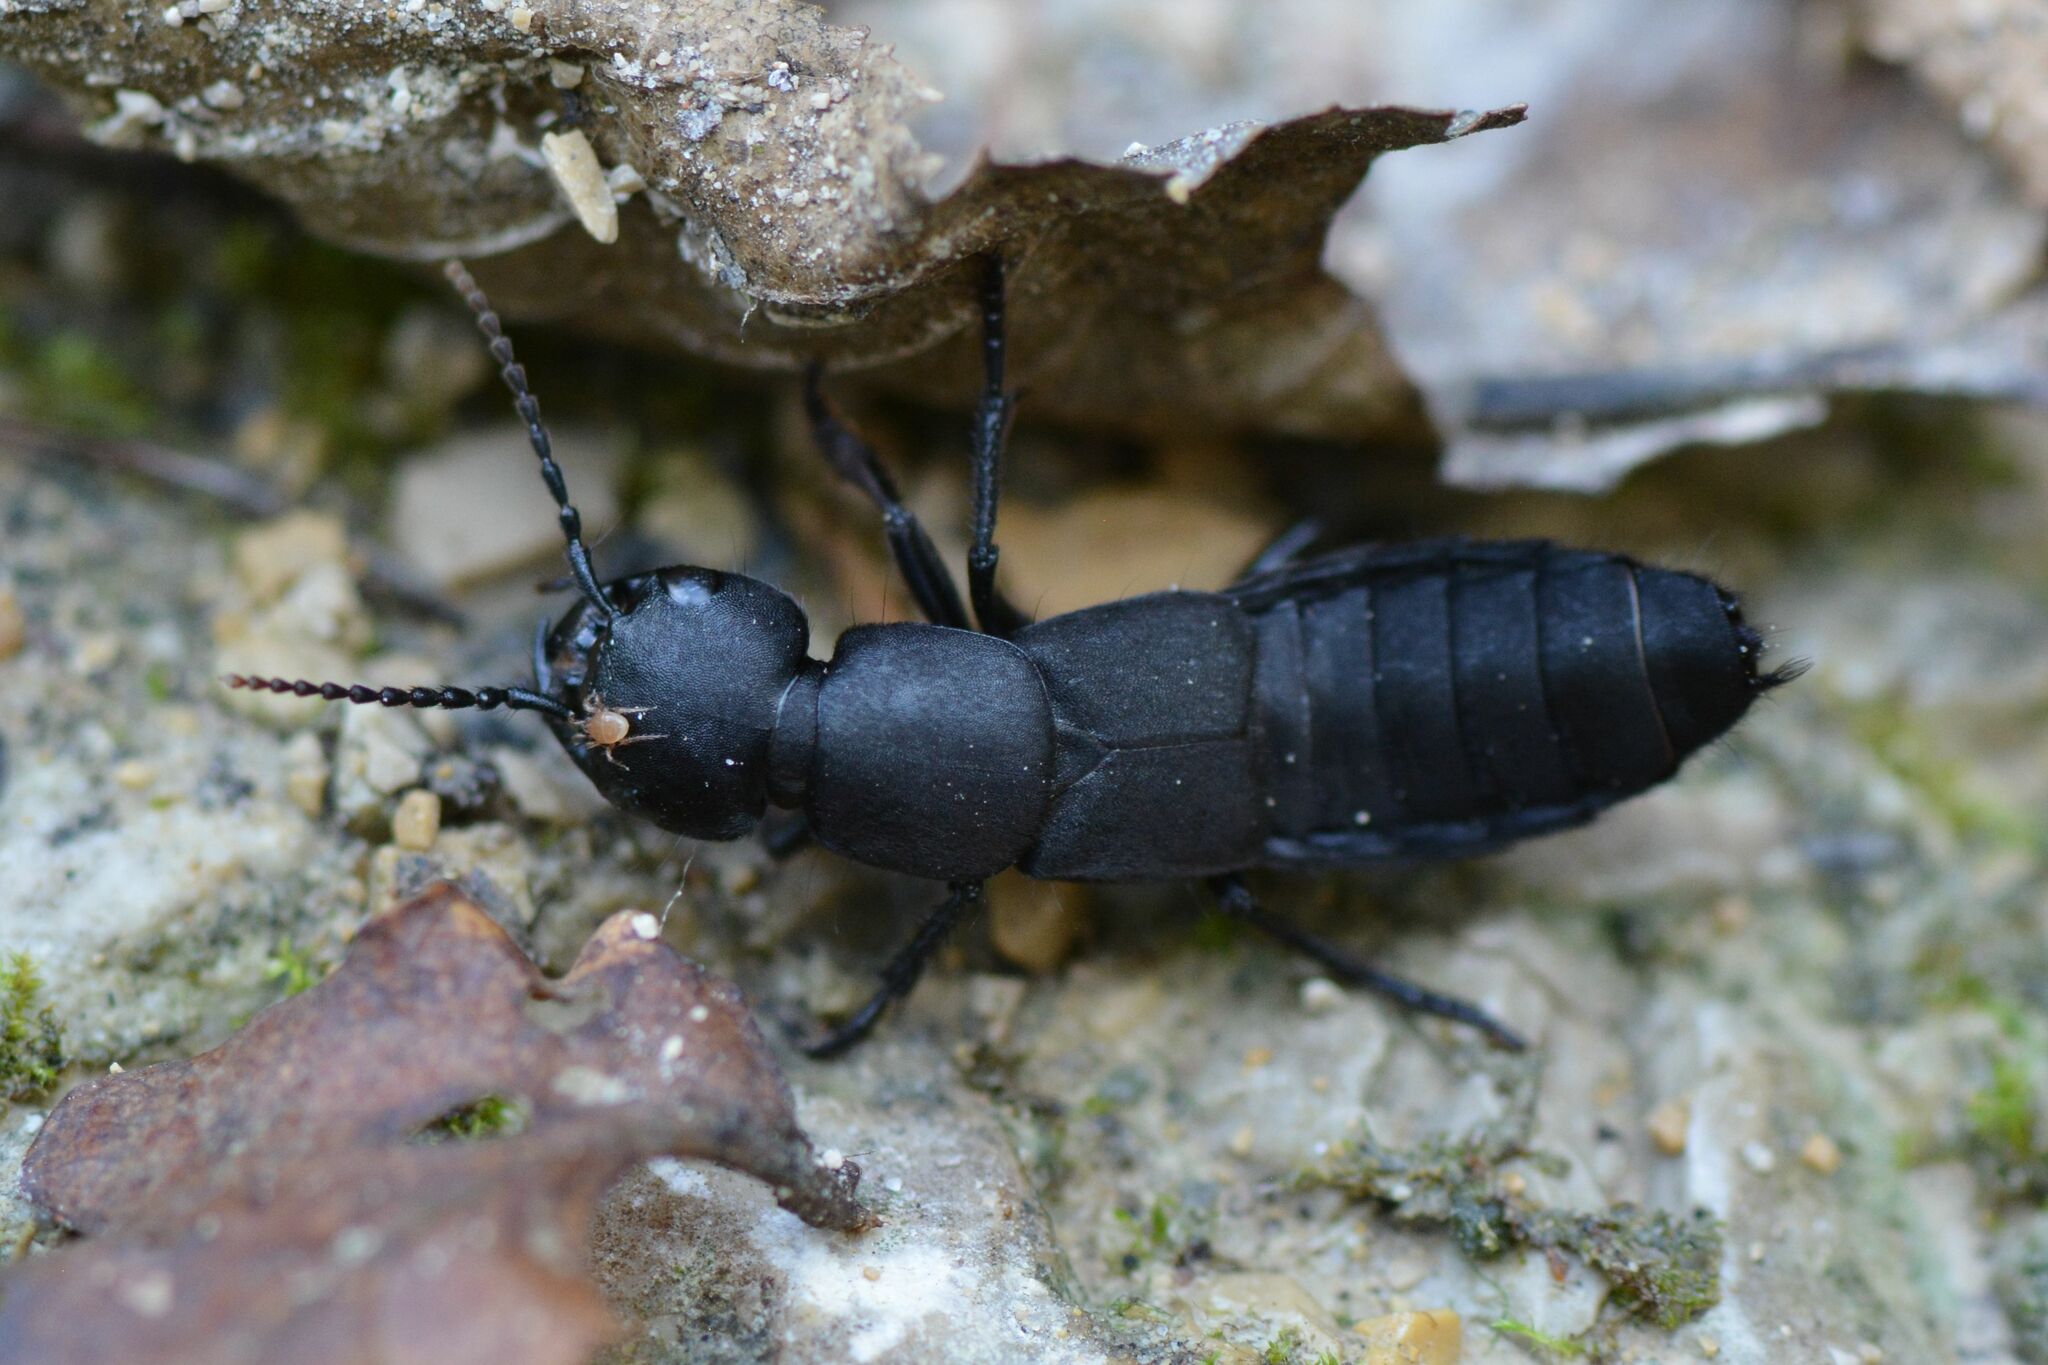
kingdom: Animalia
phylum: Arthropoda
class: Insecta
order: Coleoptera
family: Staphylinidae
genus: Ocypus
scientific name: Ocypus olens
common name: Devil's coach-horse
